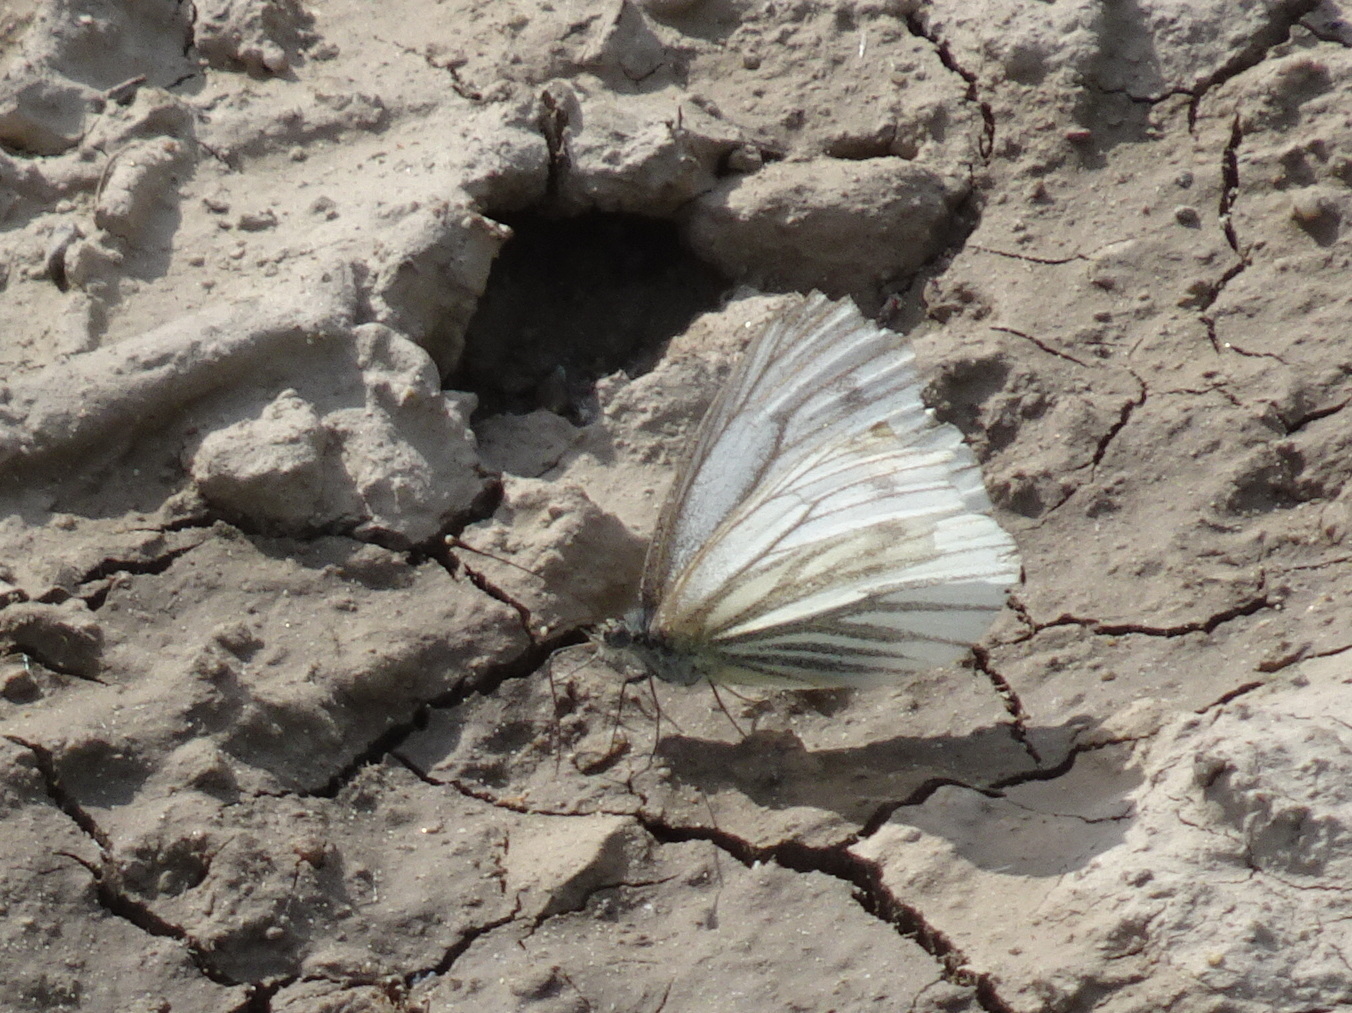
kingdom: Animalia
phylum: Arthropoda
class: Insecta
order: Lepidoptera
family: Pieridae
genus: Pieris
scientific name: Pieris napi
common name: Green-veined white
